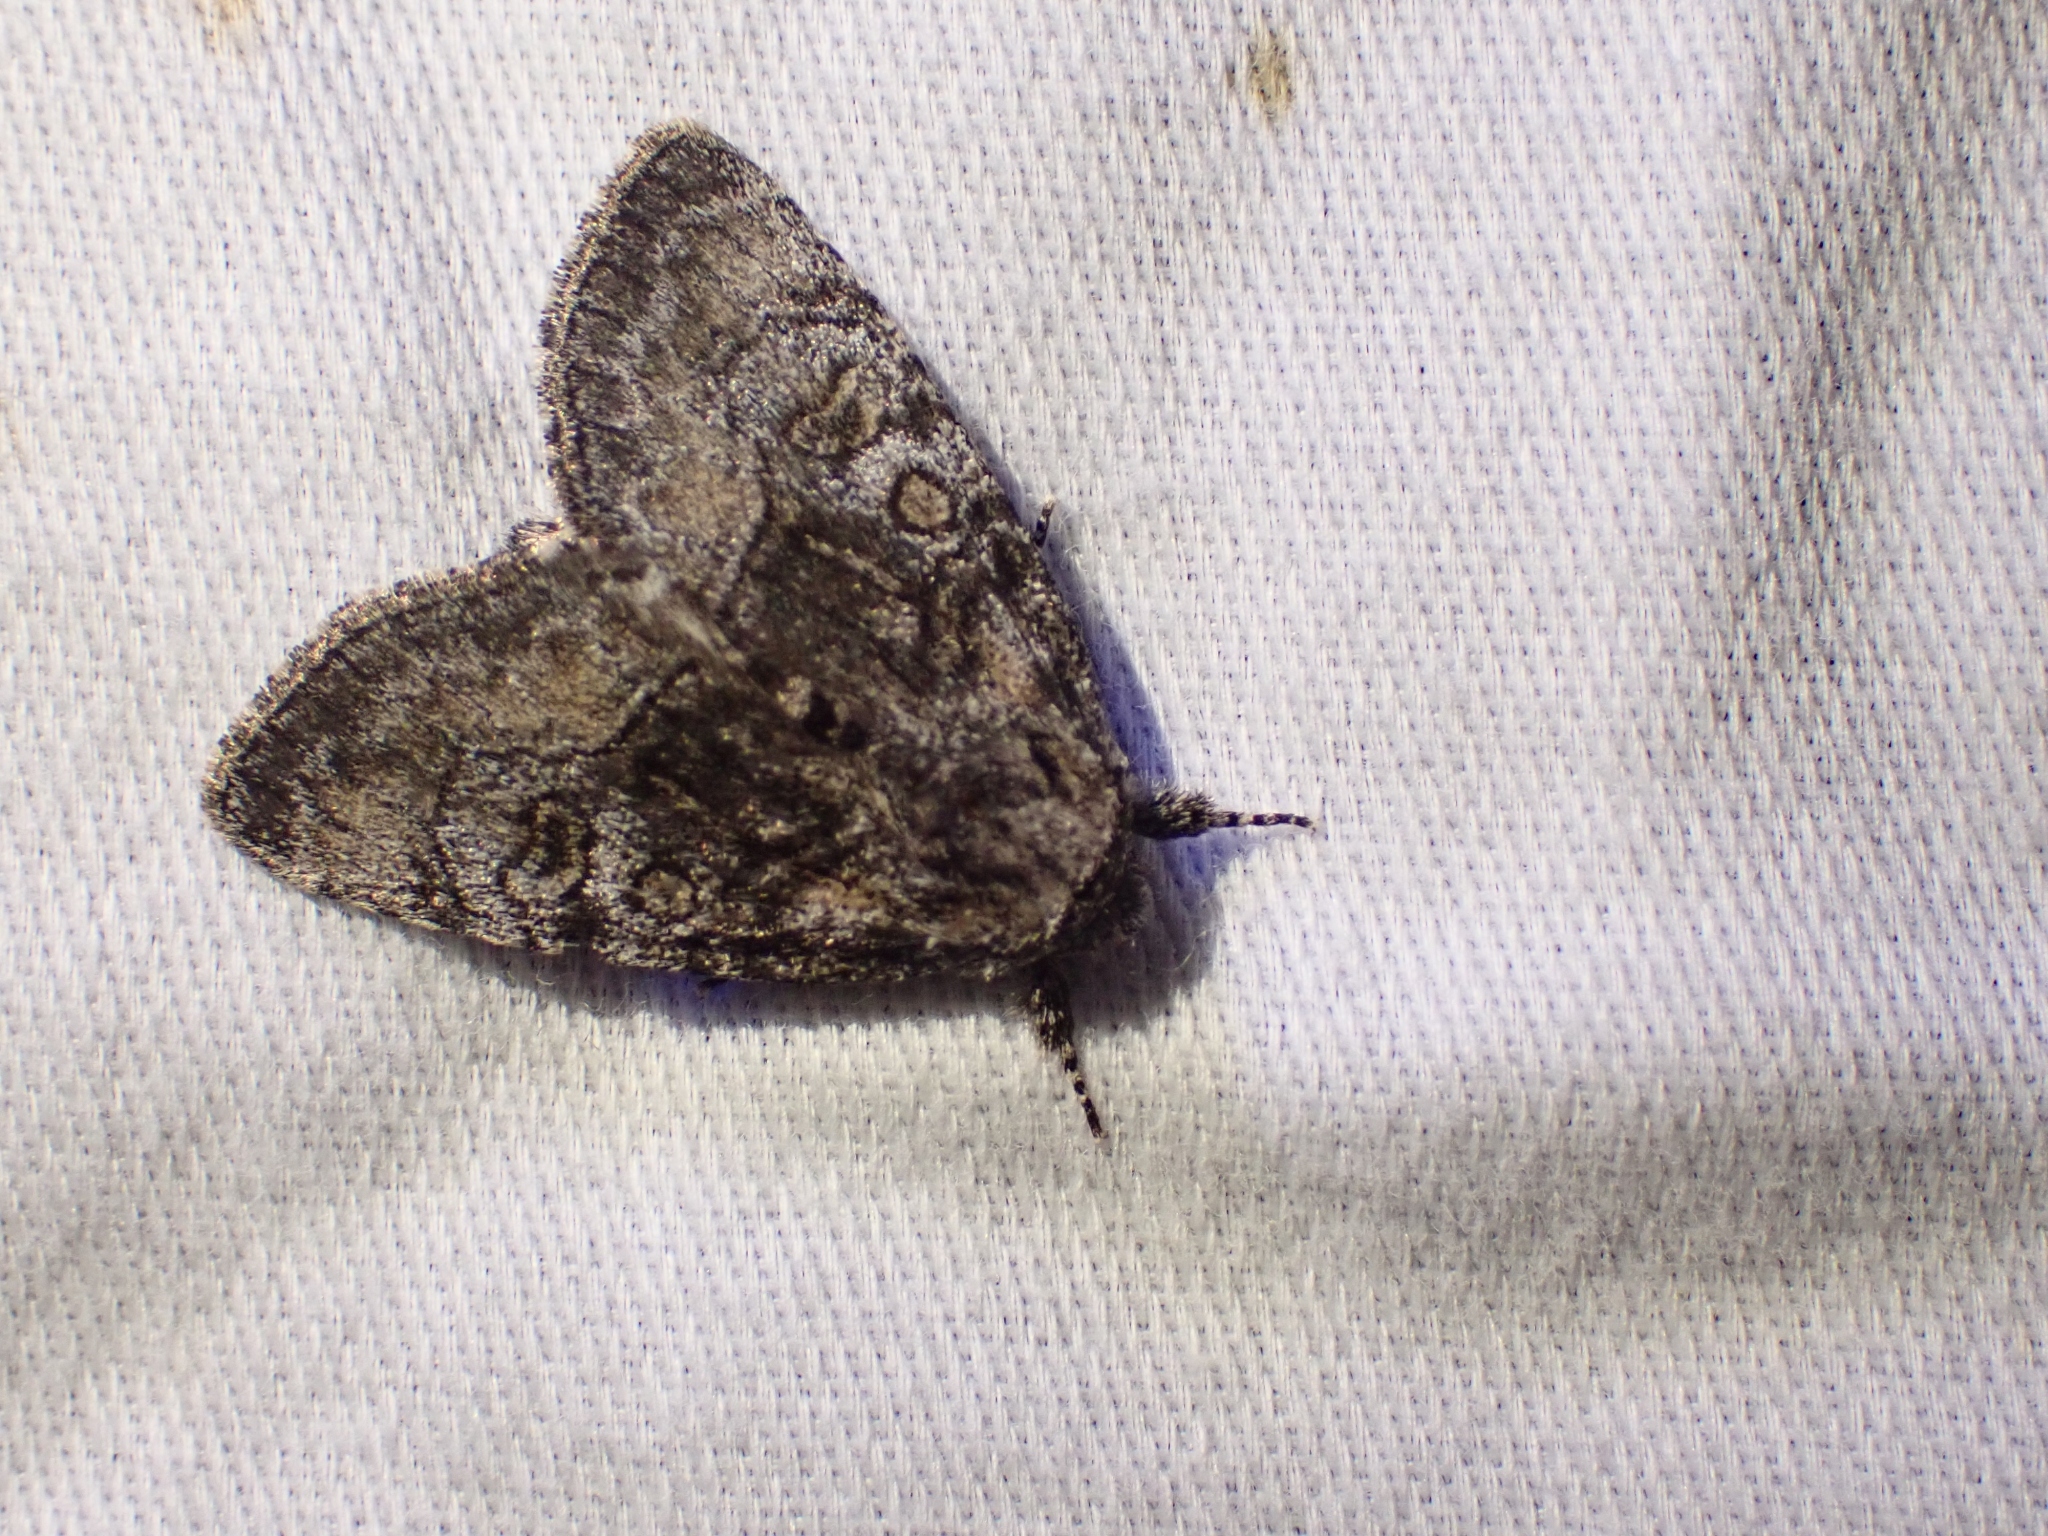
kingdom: Animalia
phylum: Arthropoda
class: Insecta
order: Lepidoptera
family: Noctuidae
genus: Raphia
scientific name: Raphia frater
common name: Brother
